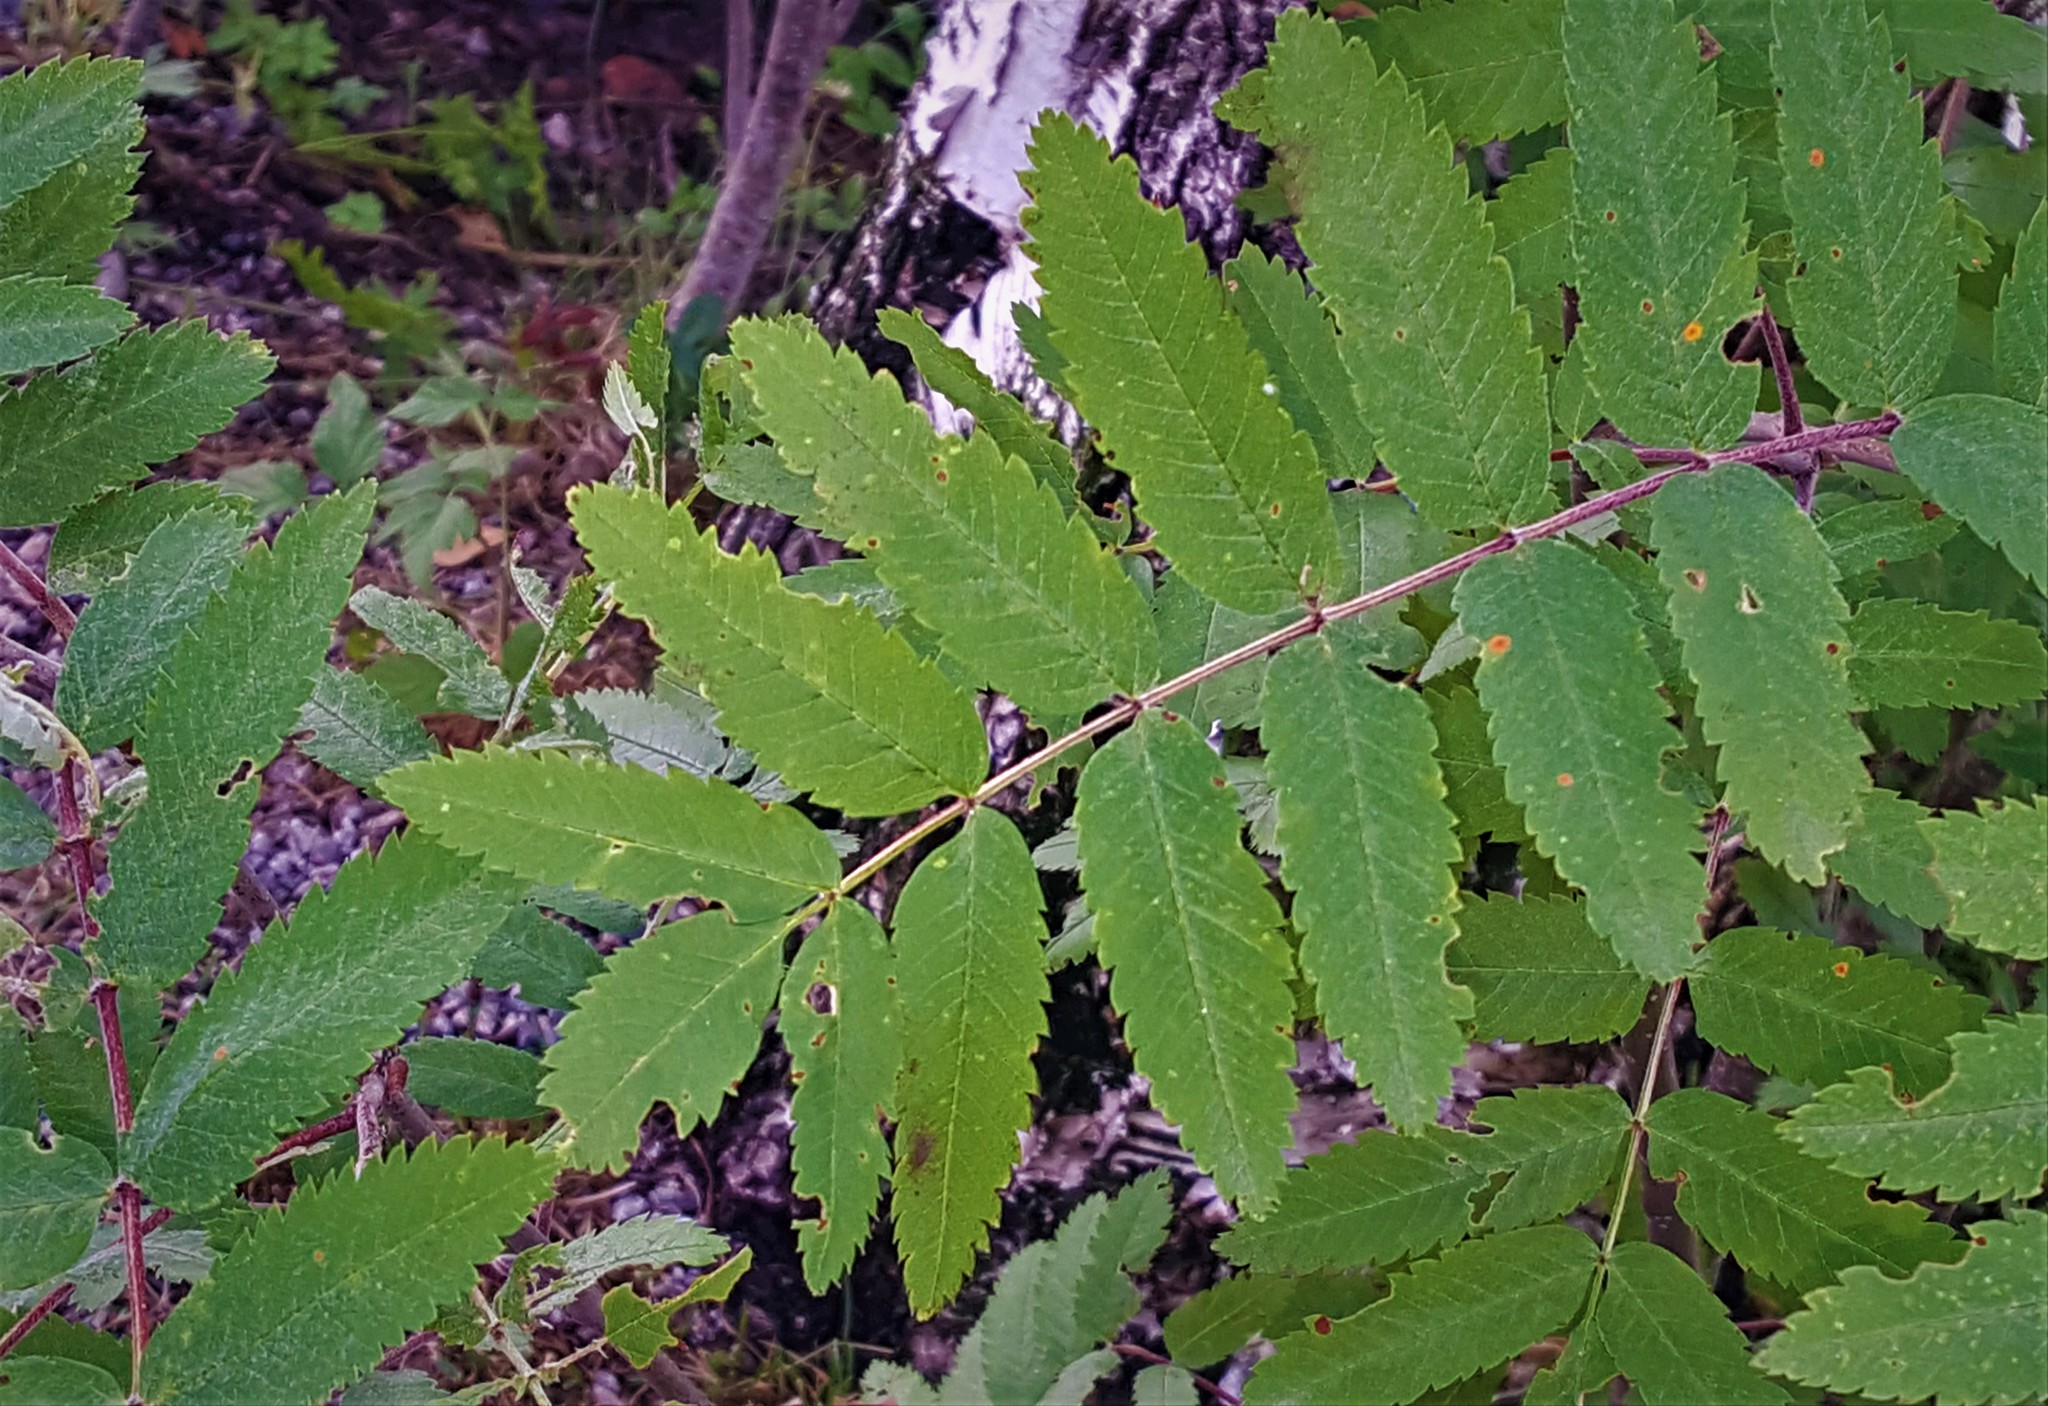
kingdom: Plantae
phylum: Tracheophyta
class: Magnoliopsida
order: Rosales
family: Rosaceae
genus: Sorbus
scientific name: Sorbus aucuparia
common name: Rowan
